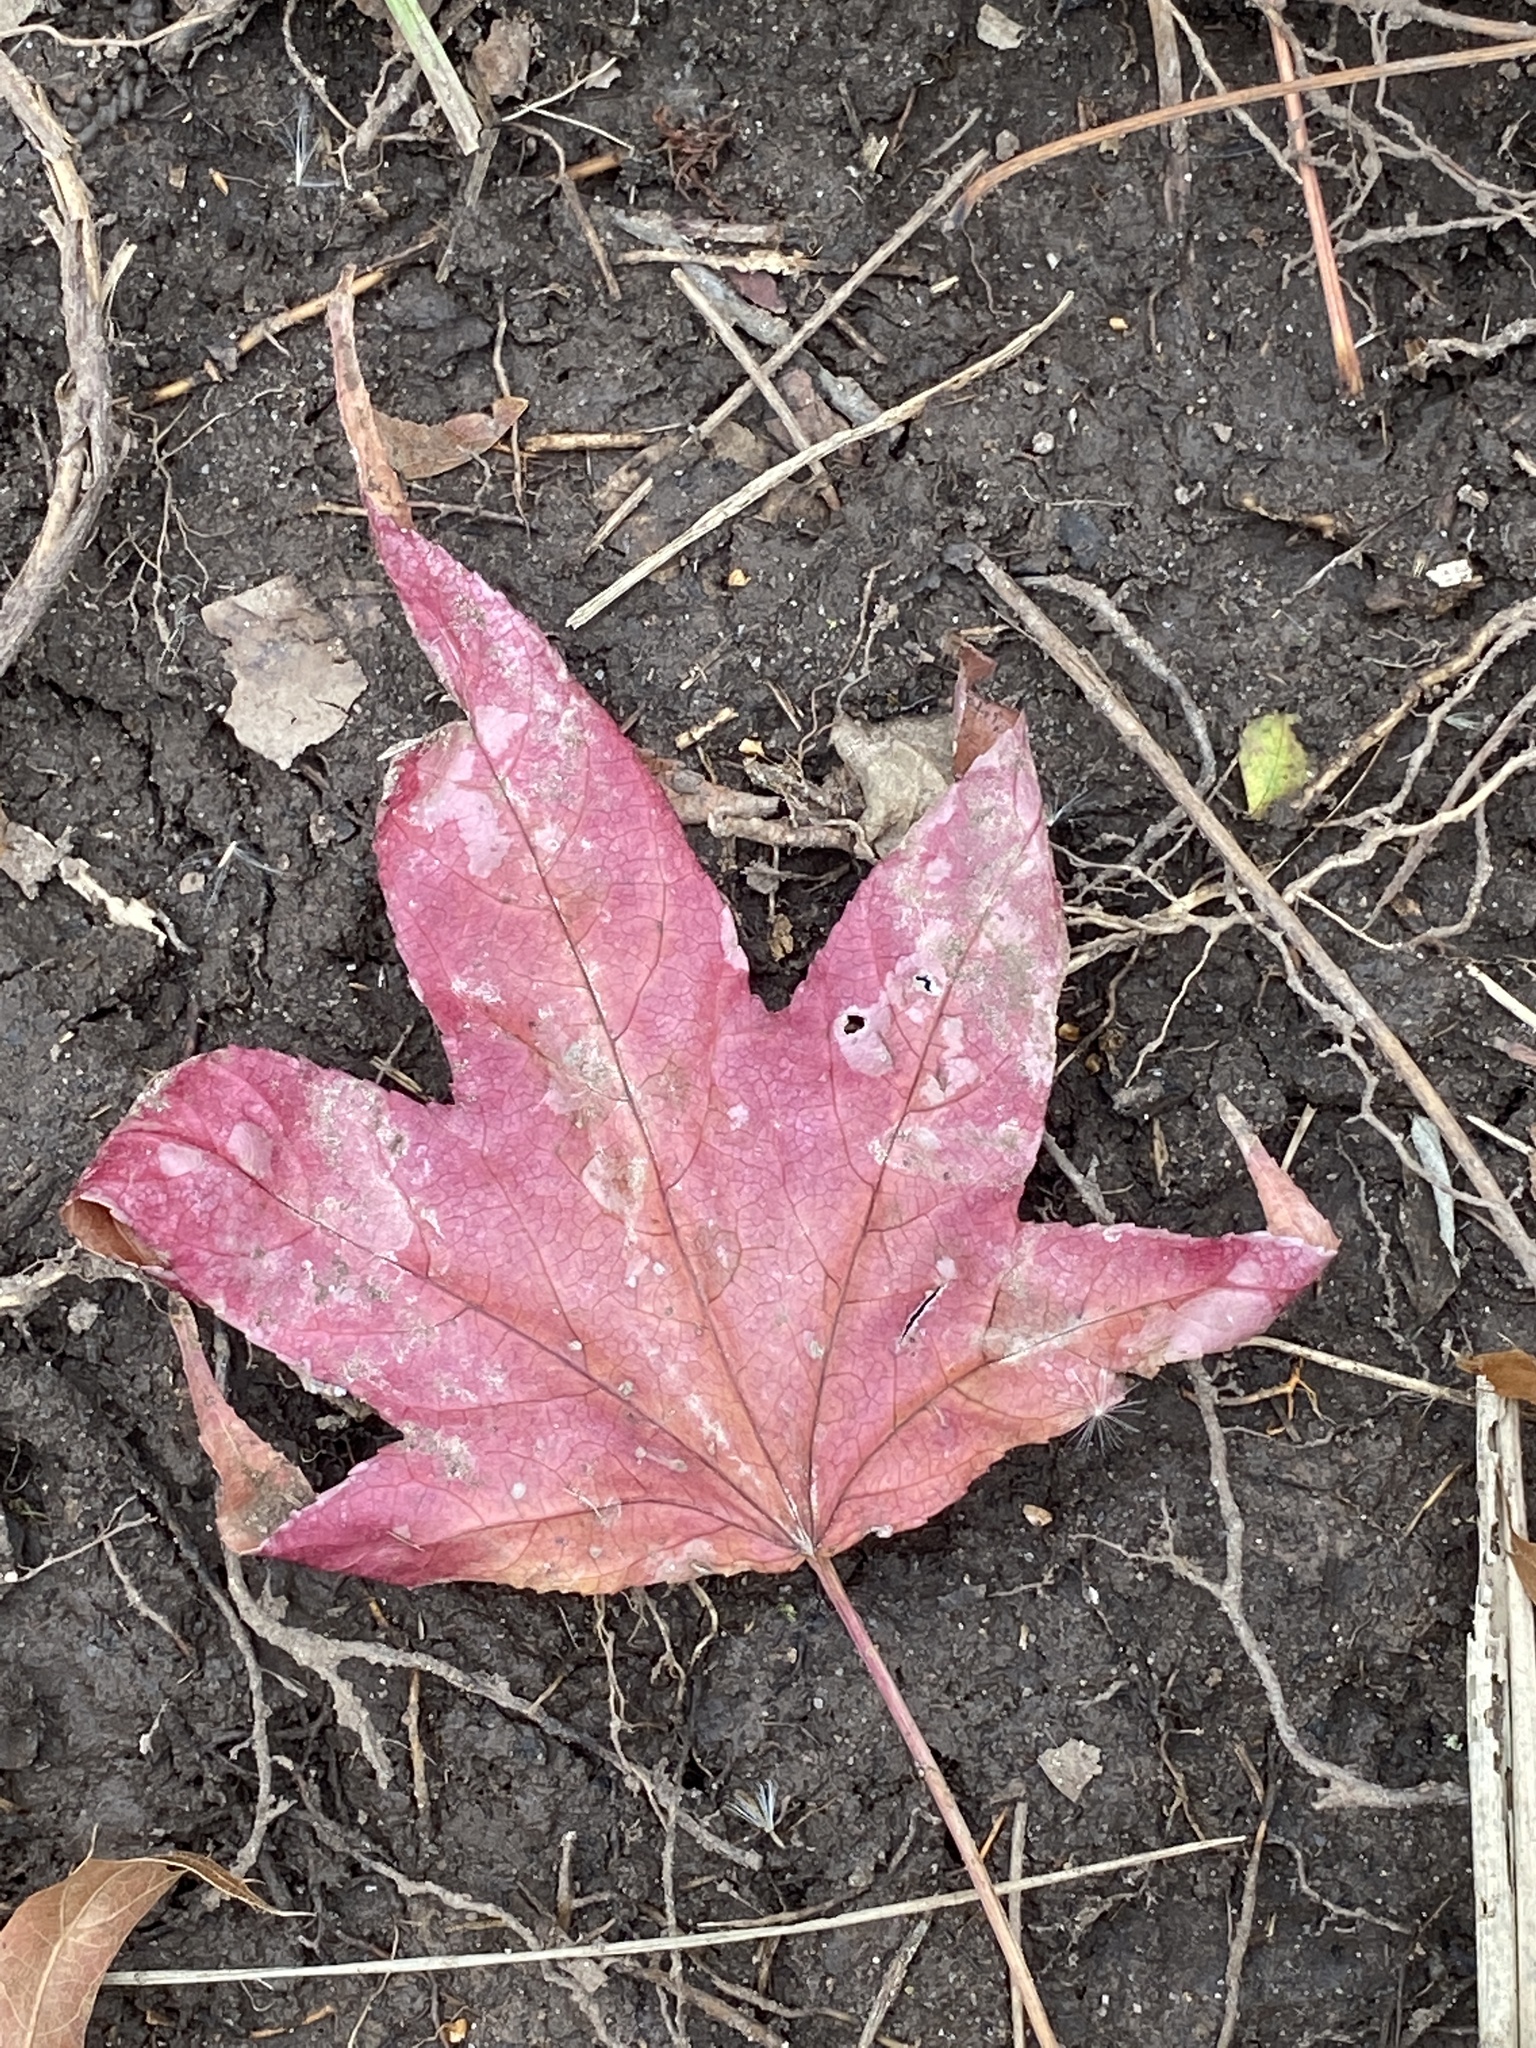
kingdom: Plantae
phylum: Tracheophyta
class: Magnoliopsida
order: Saxifragales
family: Altingiaceae
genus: Liquidambar
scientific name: Liquidambar styraciflua
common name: Sweet gum
